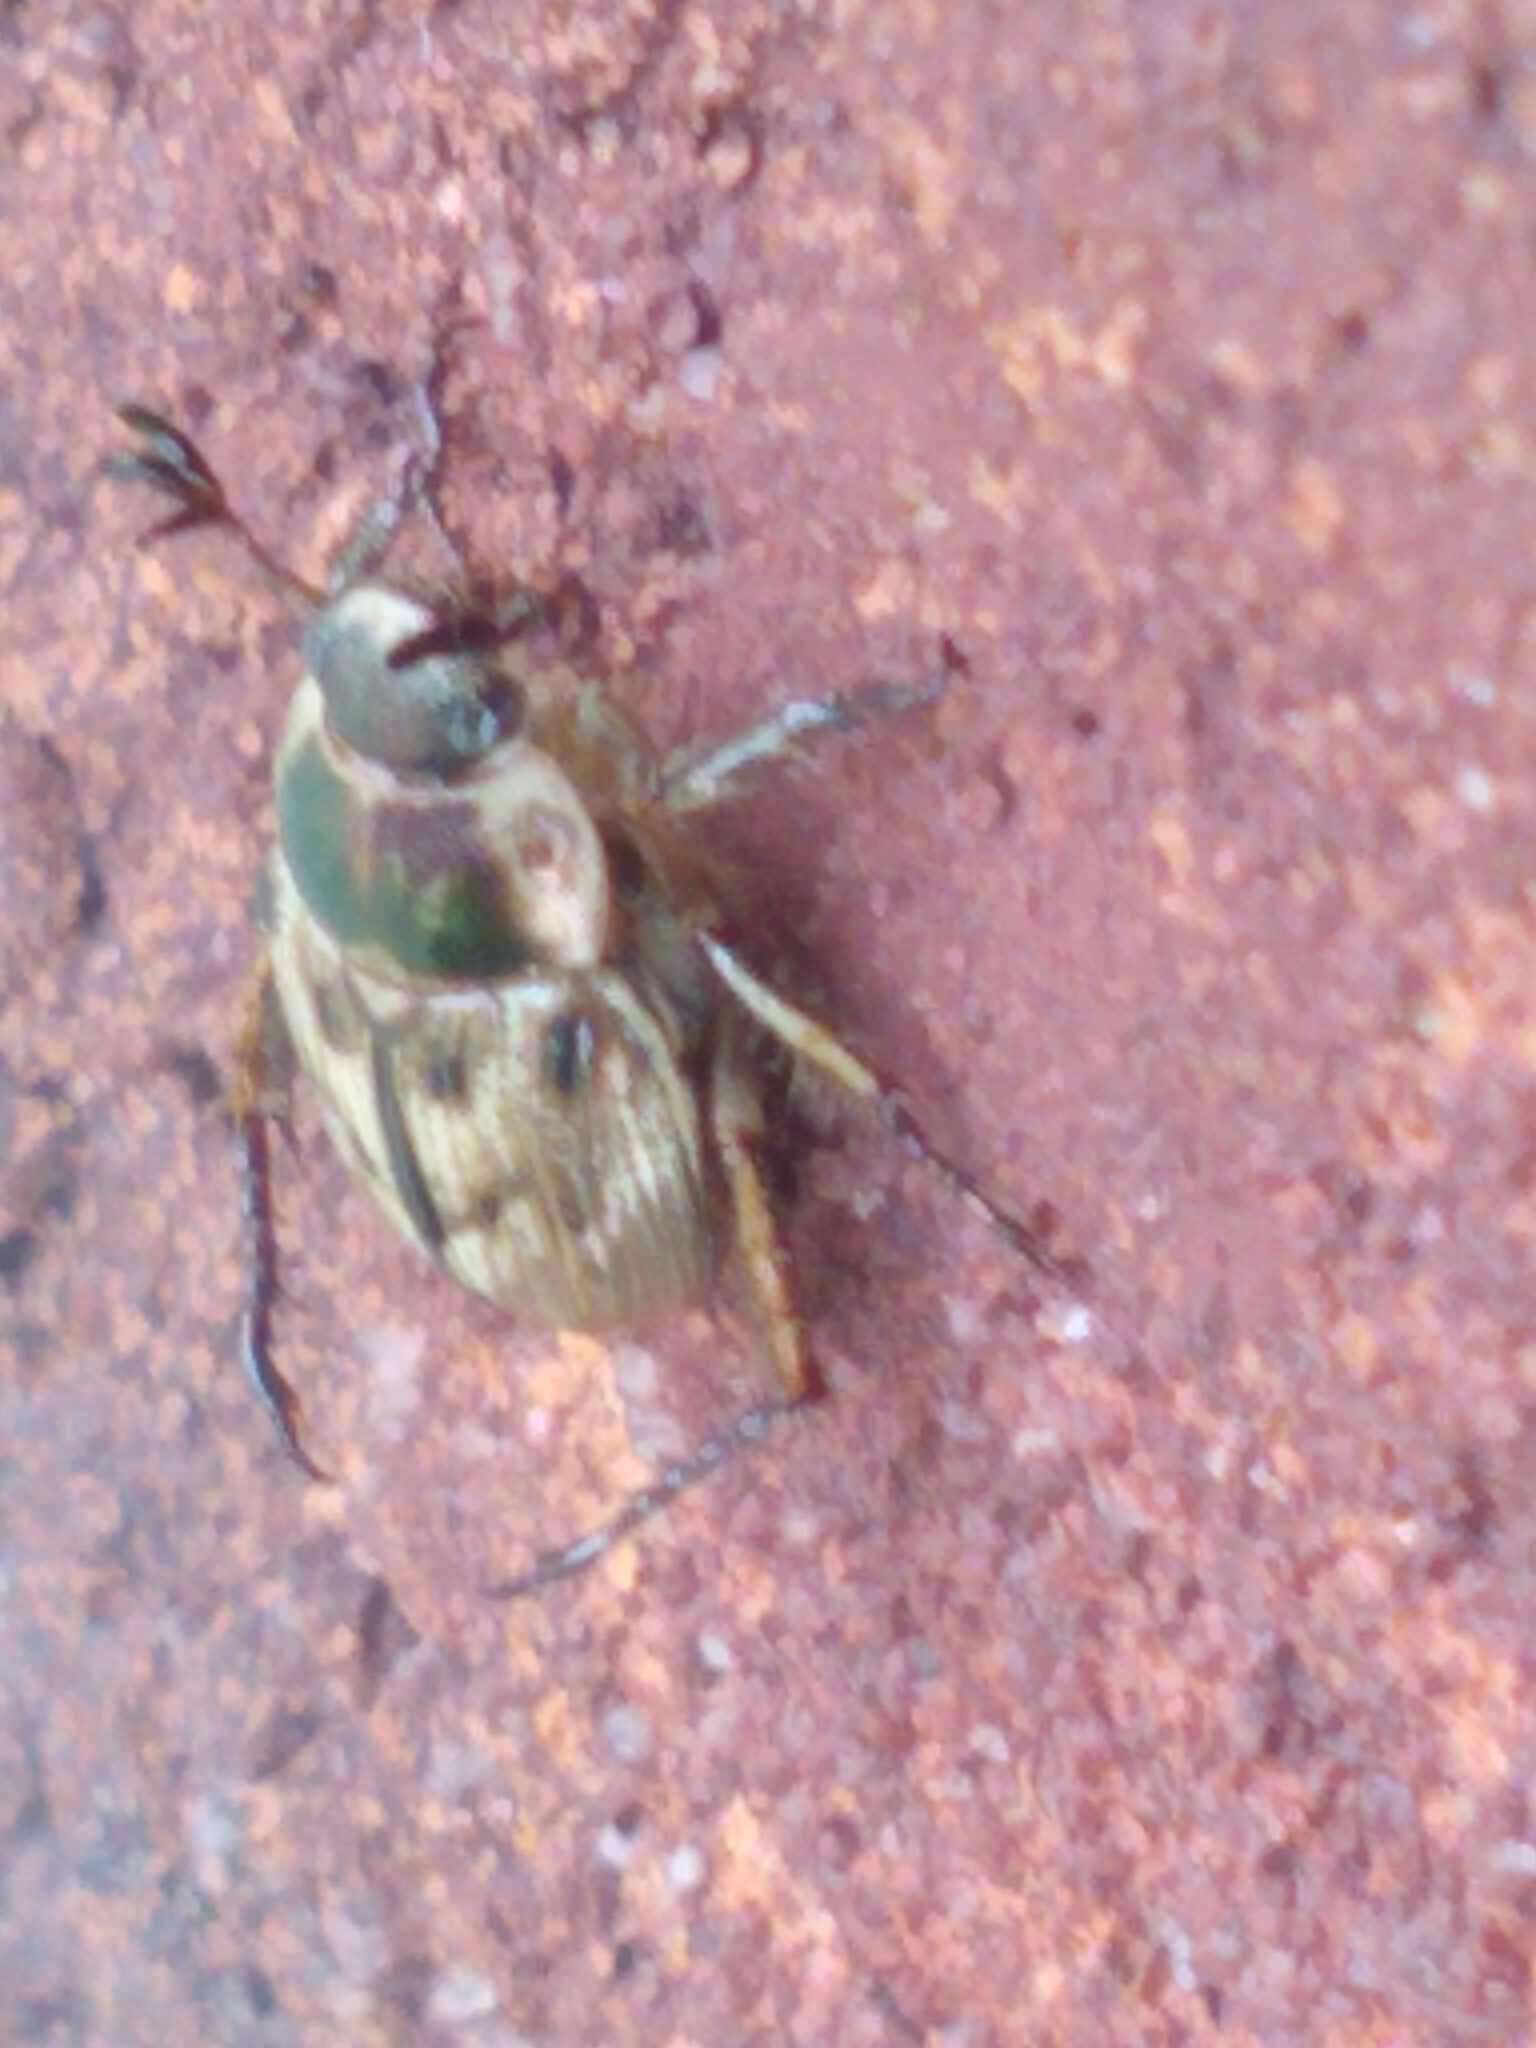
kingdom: Animalia
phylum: Arthropoda
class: Insecta
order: Coleoptera
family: Scarabaeidae
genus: Exomala
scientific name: Exomala orientalis
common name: Oriental beetle
